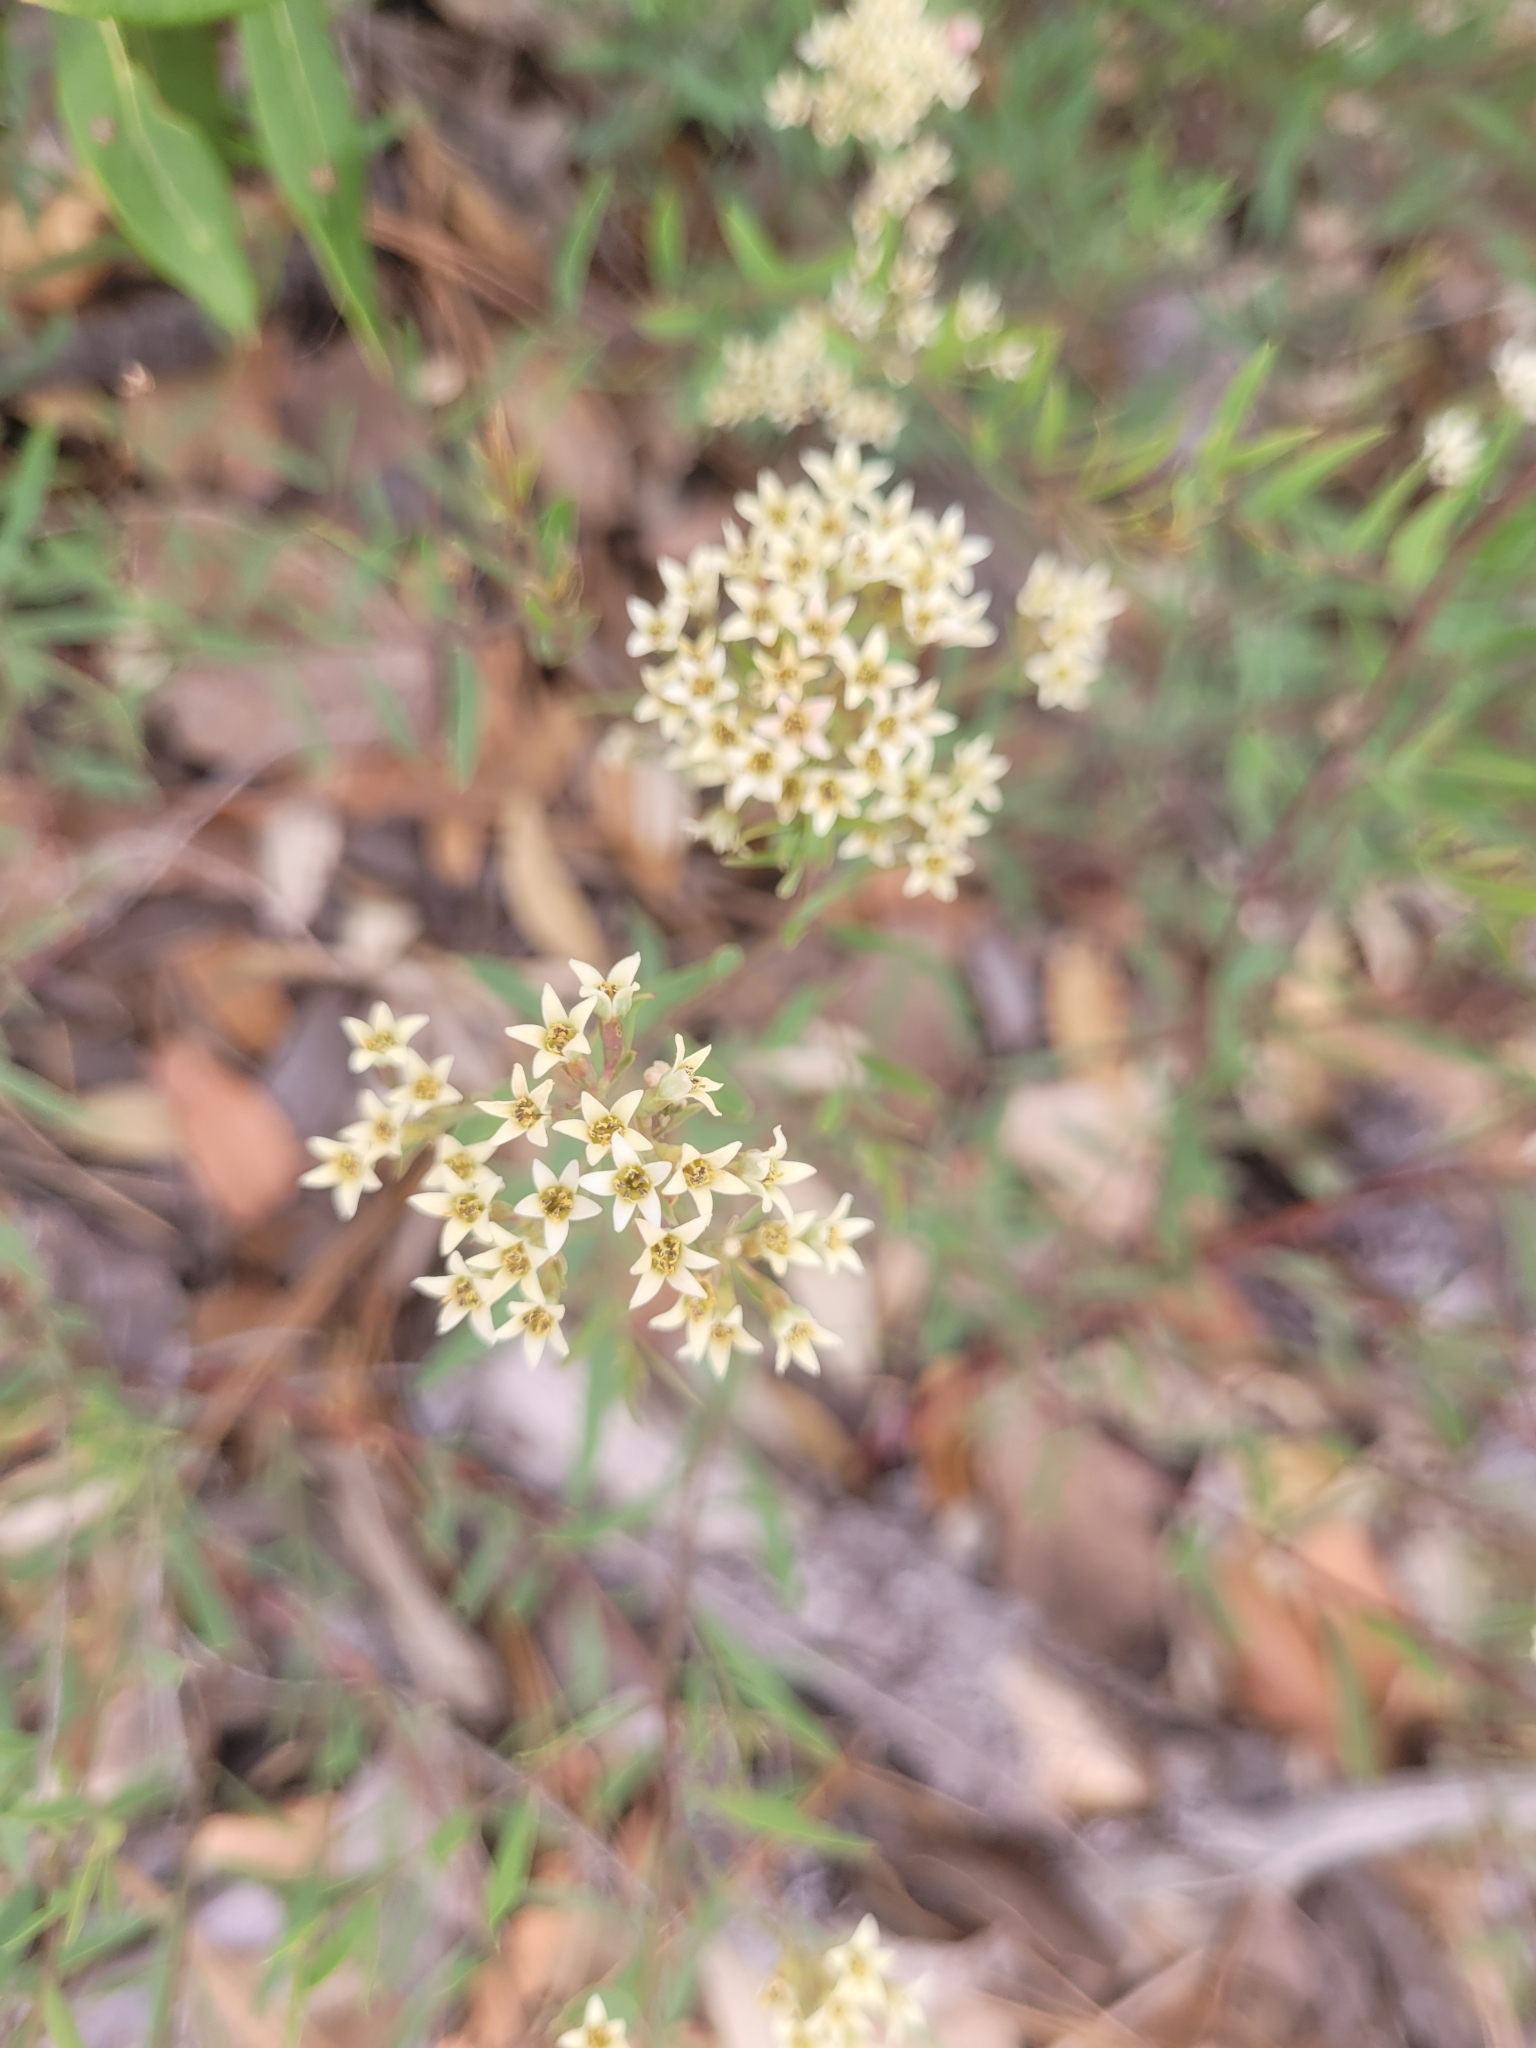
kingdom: Plantae
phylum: Tracheophyta
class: Magnoliopsida
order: Santalales
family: Comandraceae
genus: Comandra
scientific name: Comandra umbellata
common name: Bastard toadflax
